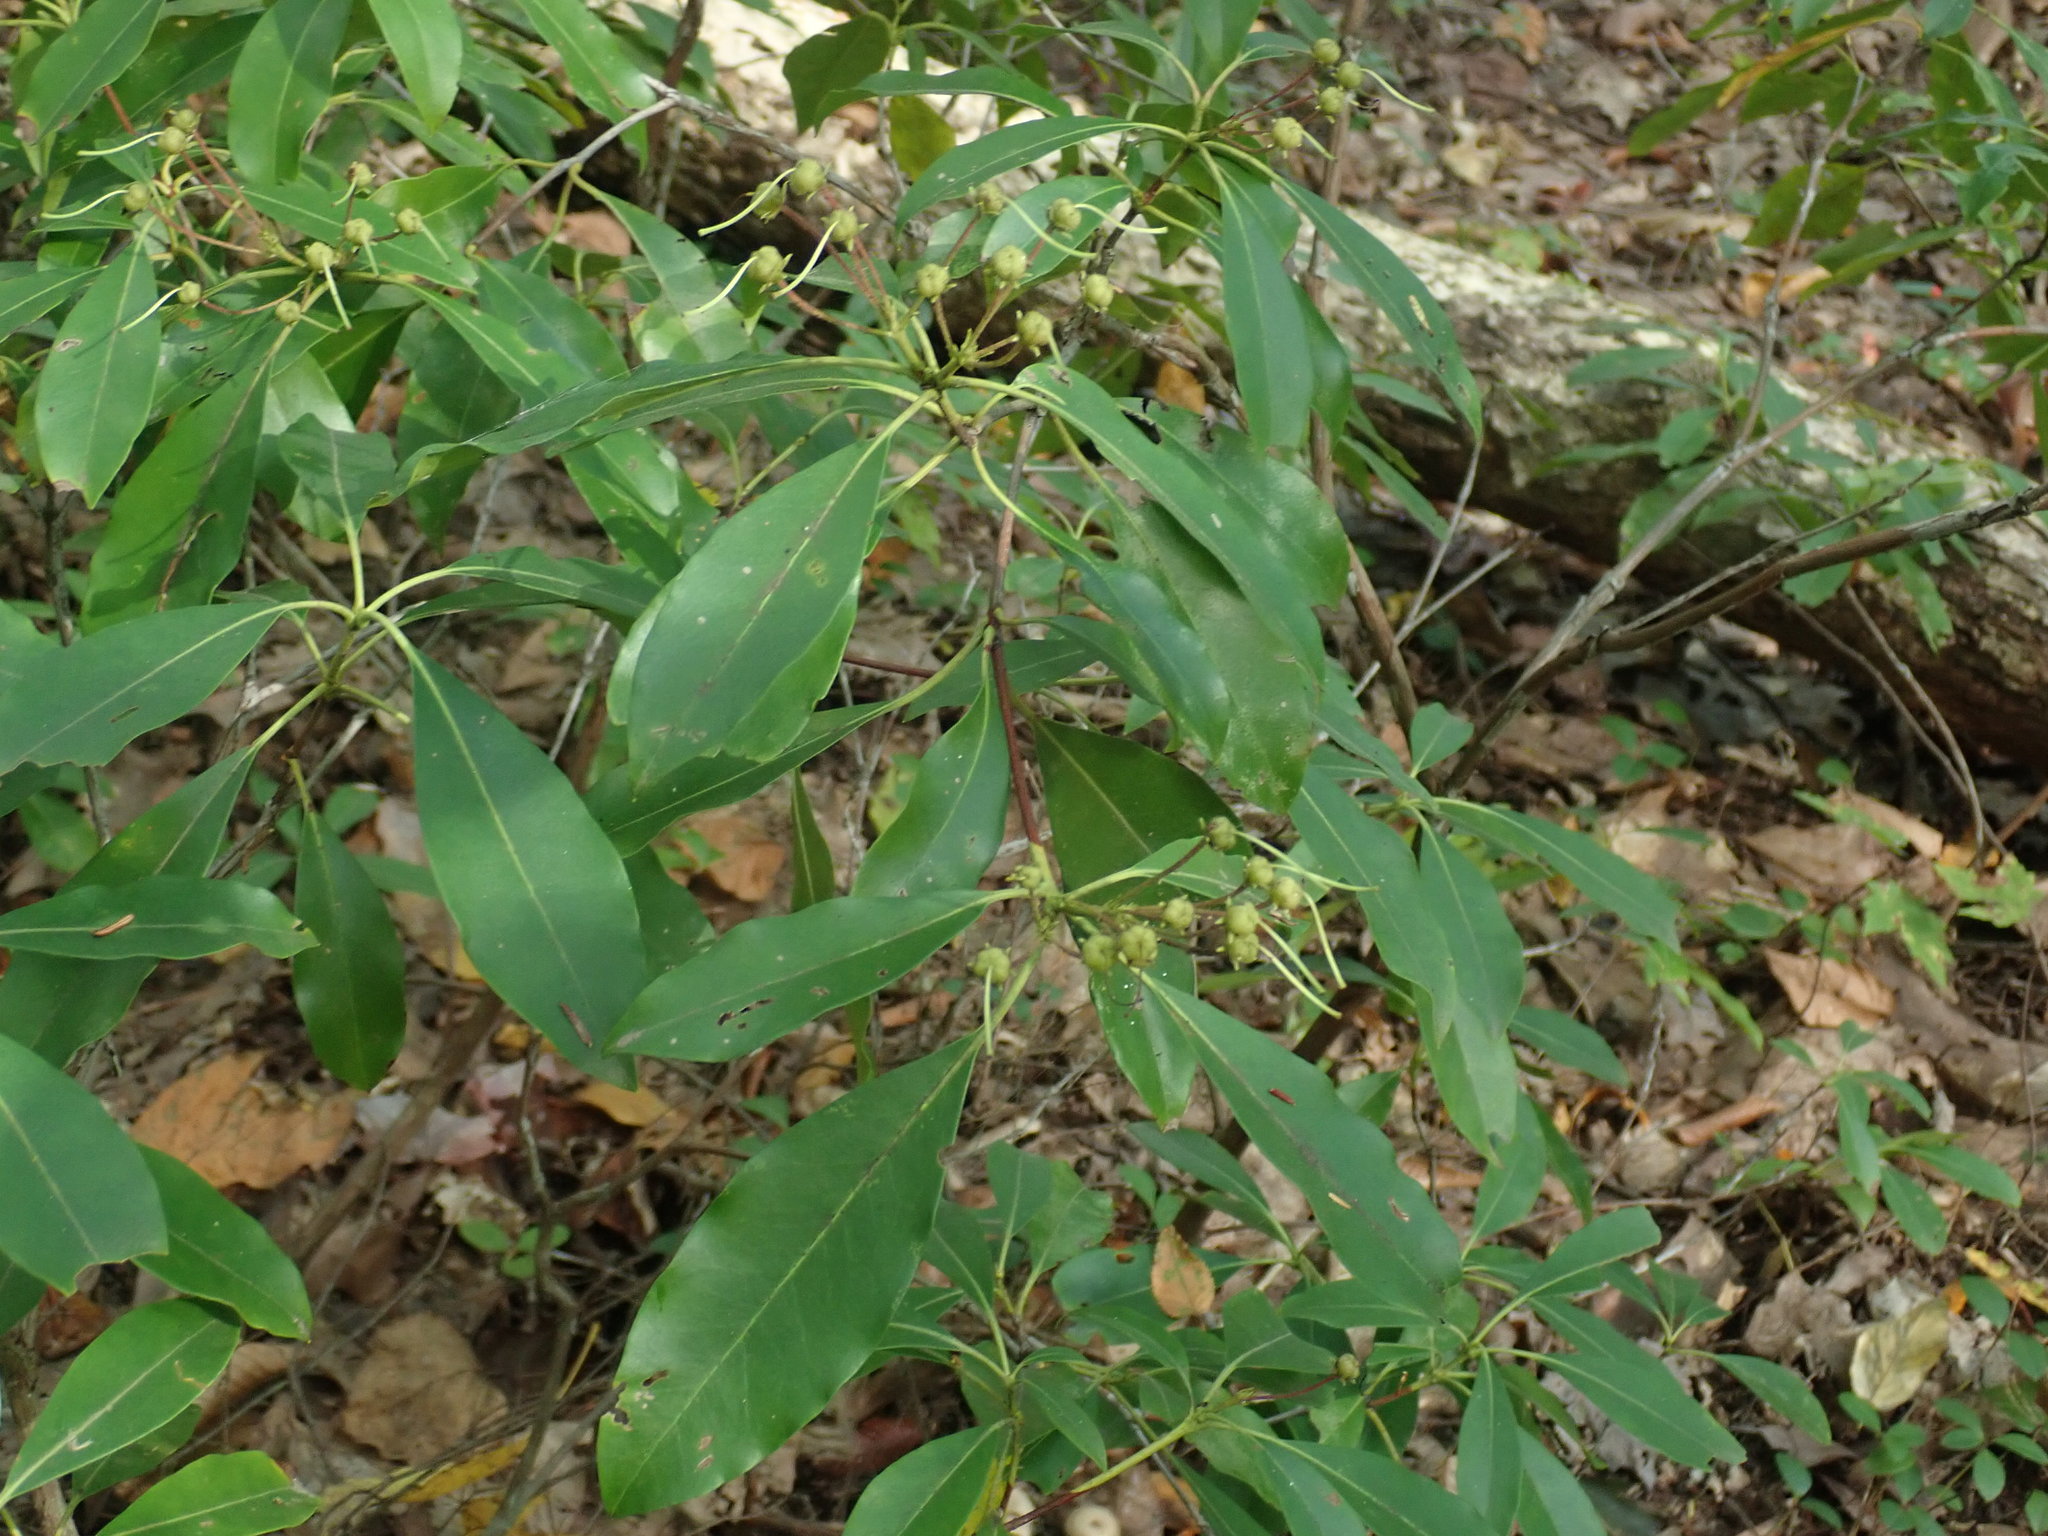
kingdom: Plantae
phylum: Tracheophyta
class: Magnoliopsida
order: Ericales
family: Ericaceae
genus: Kalmia
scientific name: Kalmia latifolia
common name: Mountain-laurel
